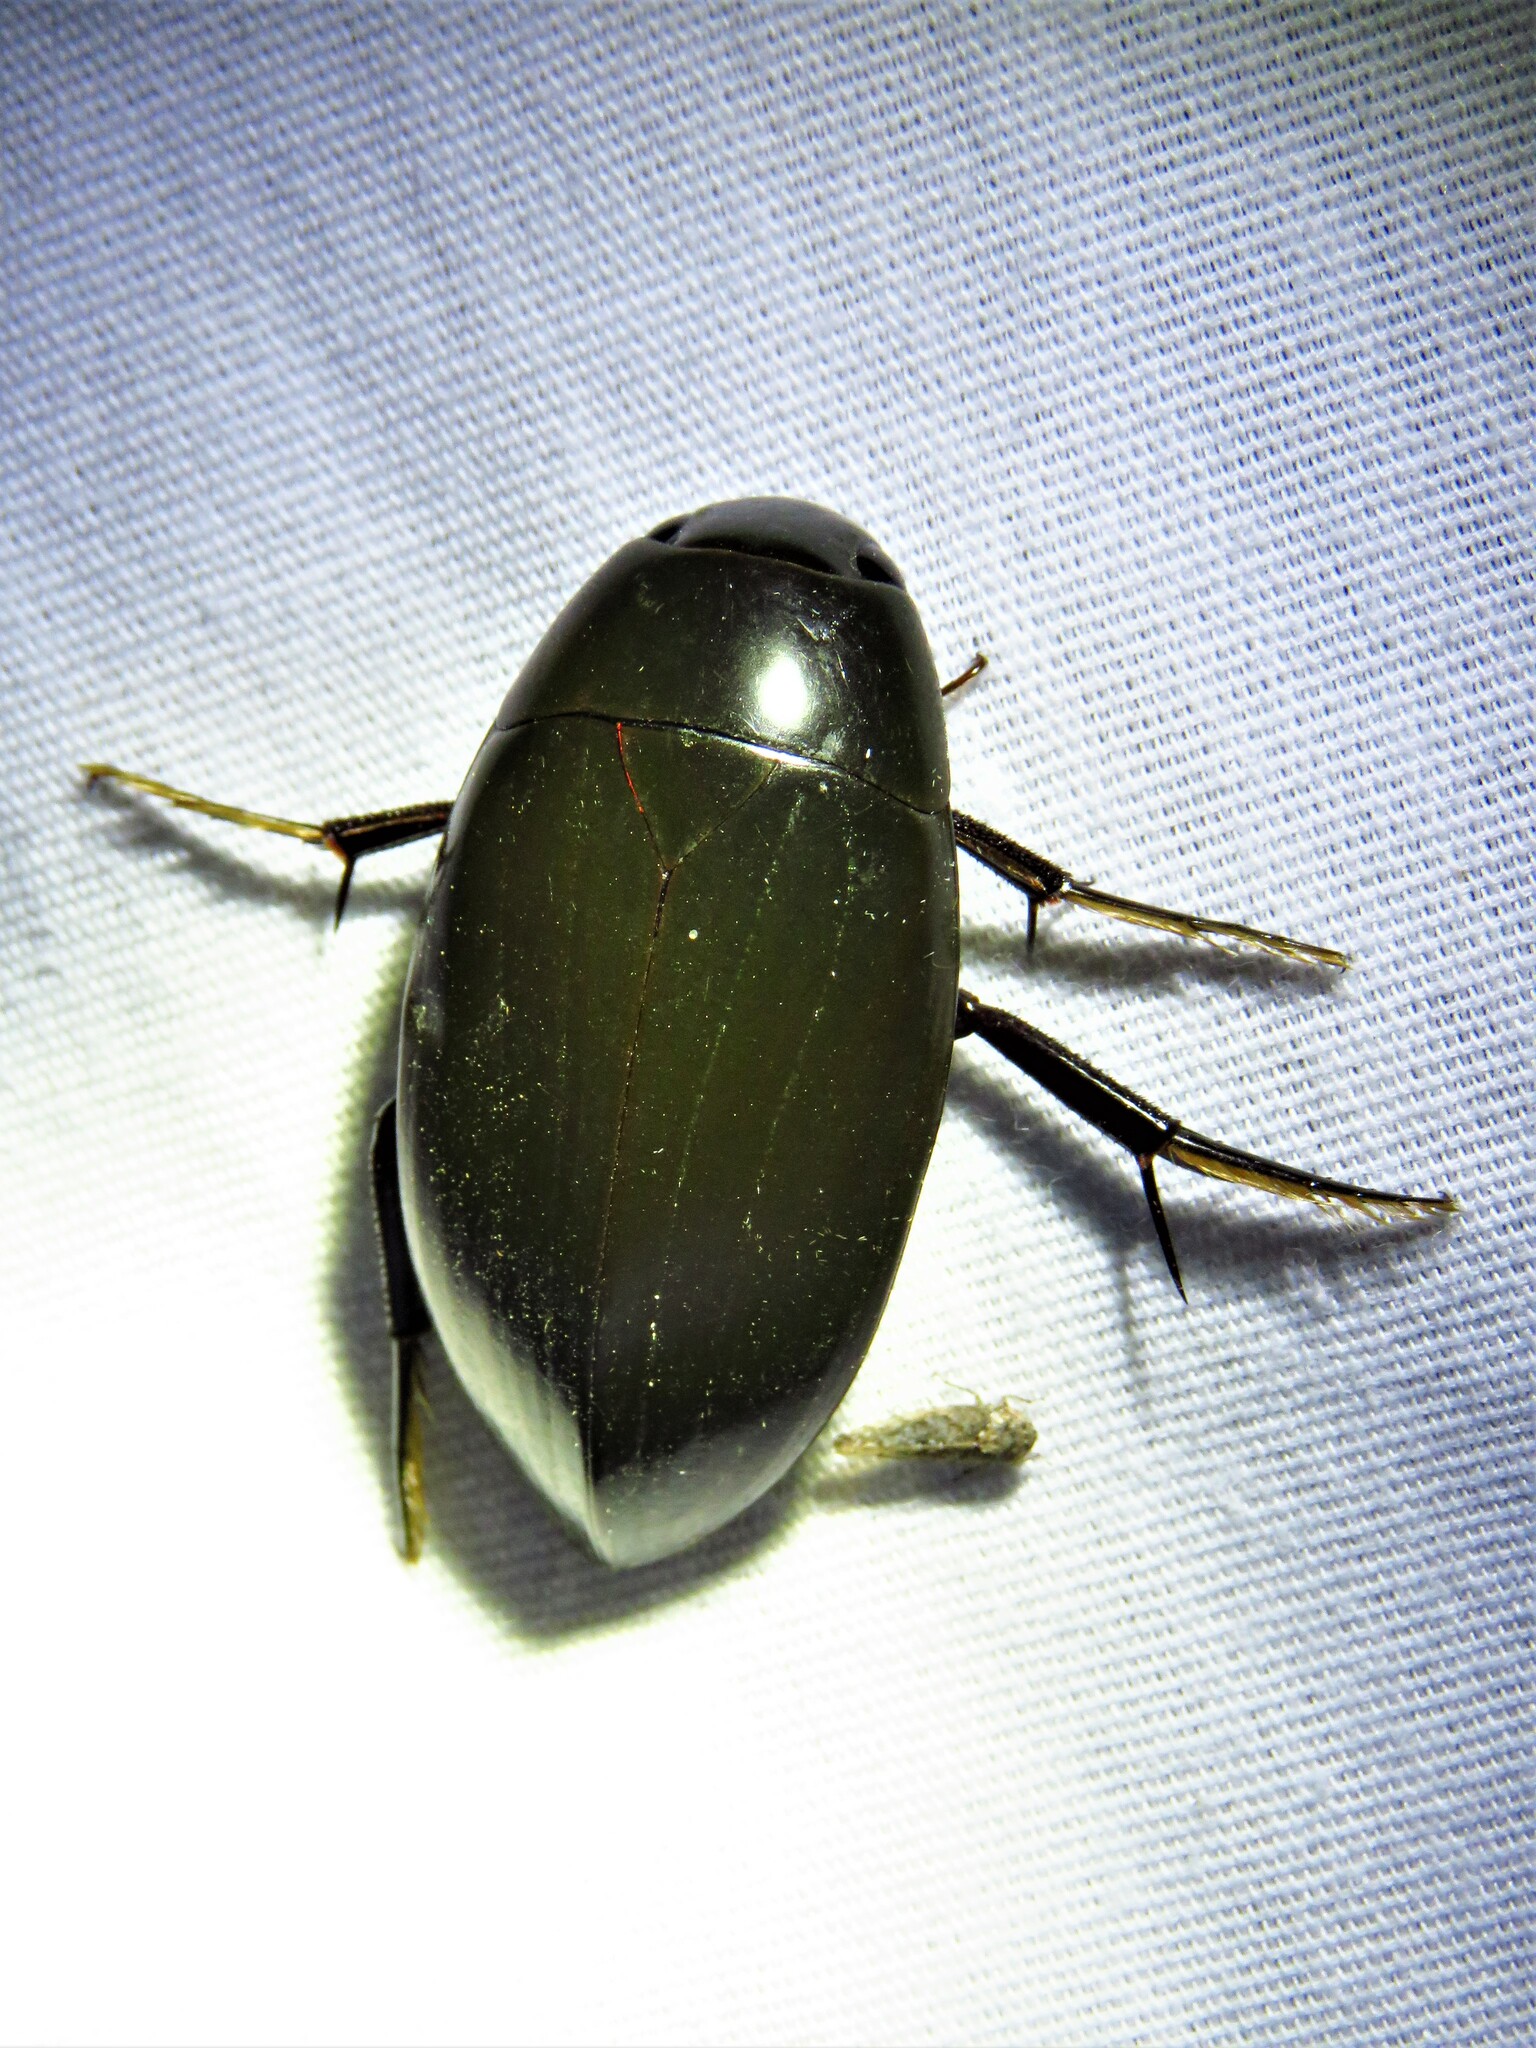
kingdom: Animalia
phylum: Arthropoda
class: Insecta
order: Coleoptera
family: Hydrophilidae
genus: Hydrophilus
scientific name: Hydrophilus
